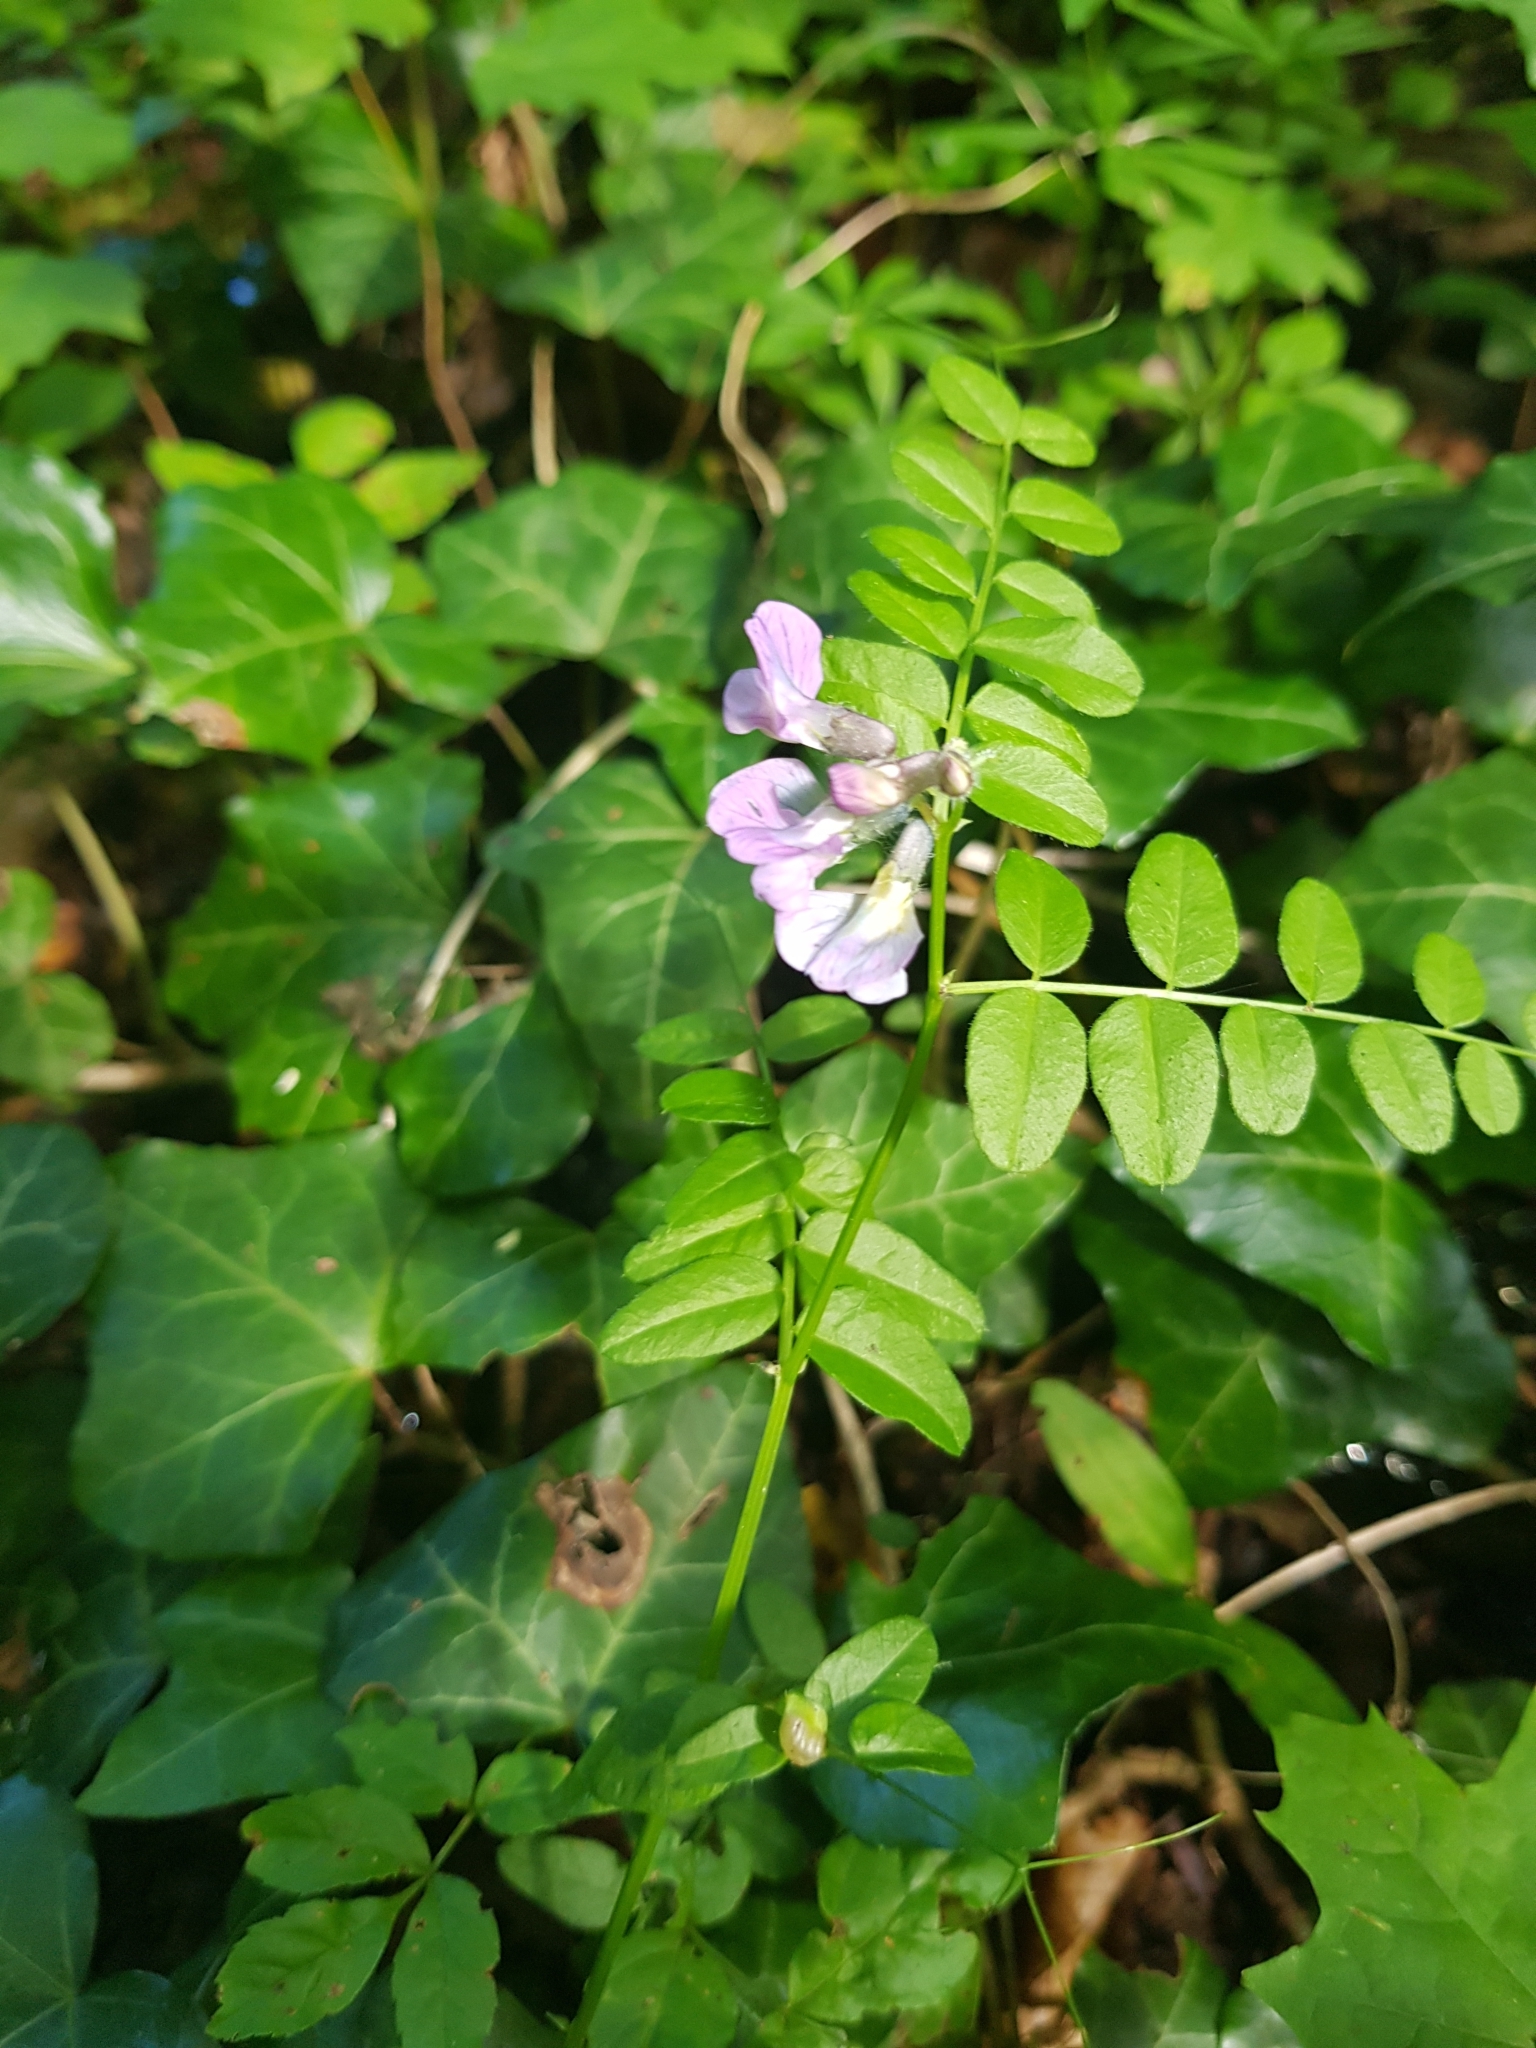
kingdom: Plantae
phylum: Tracheophyta
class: Magnoliopsida
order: Fabales
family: Fabaceae
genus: Vicia
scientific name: Vicia sepium
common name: Bush vetch
